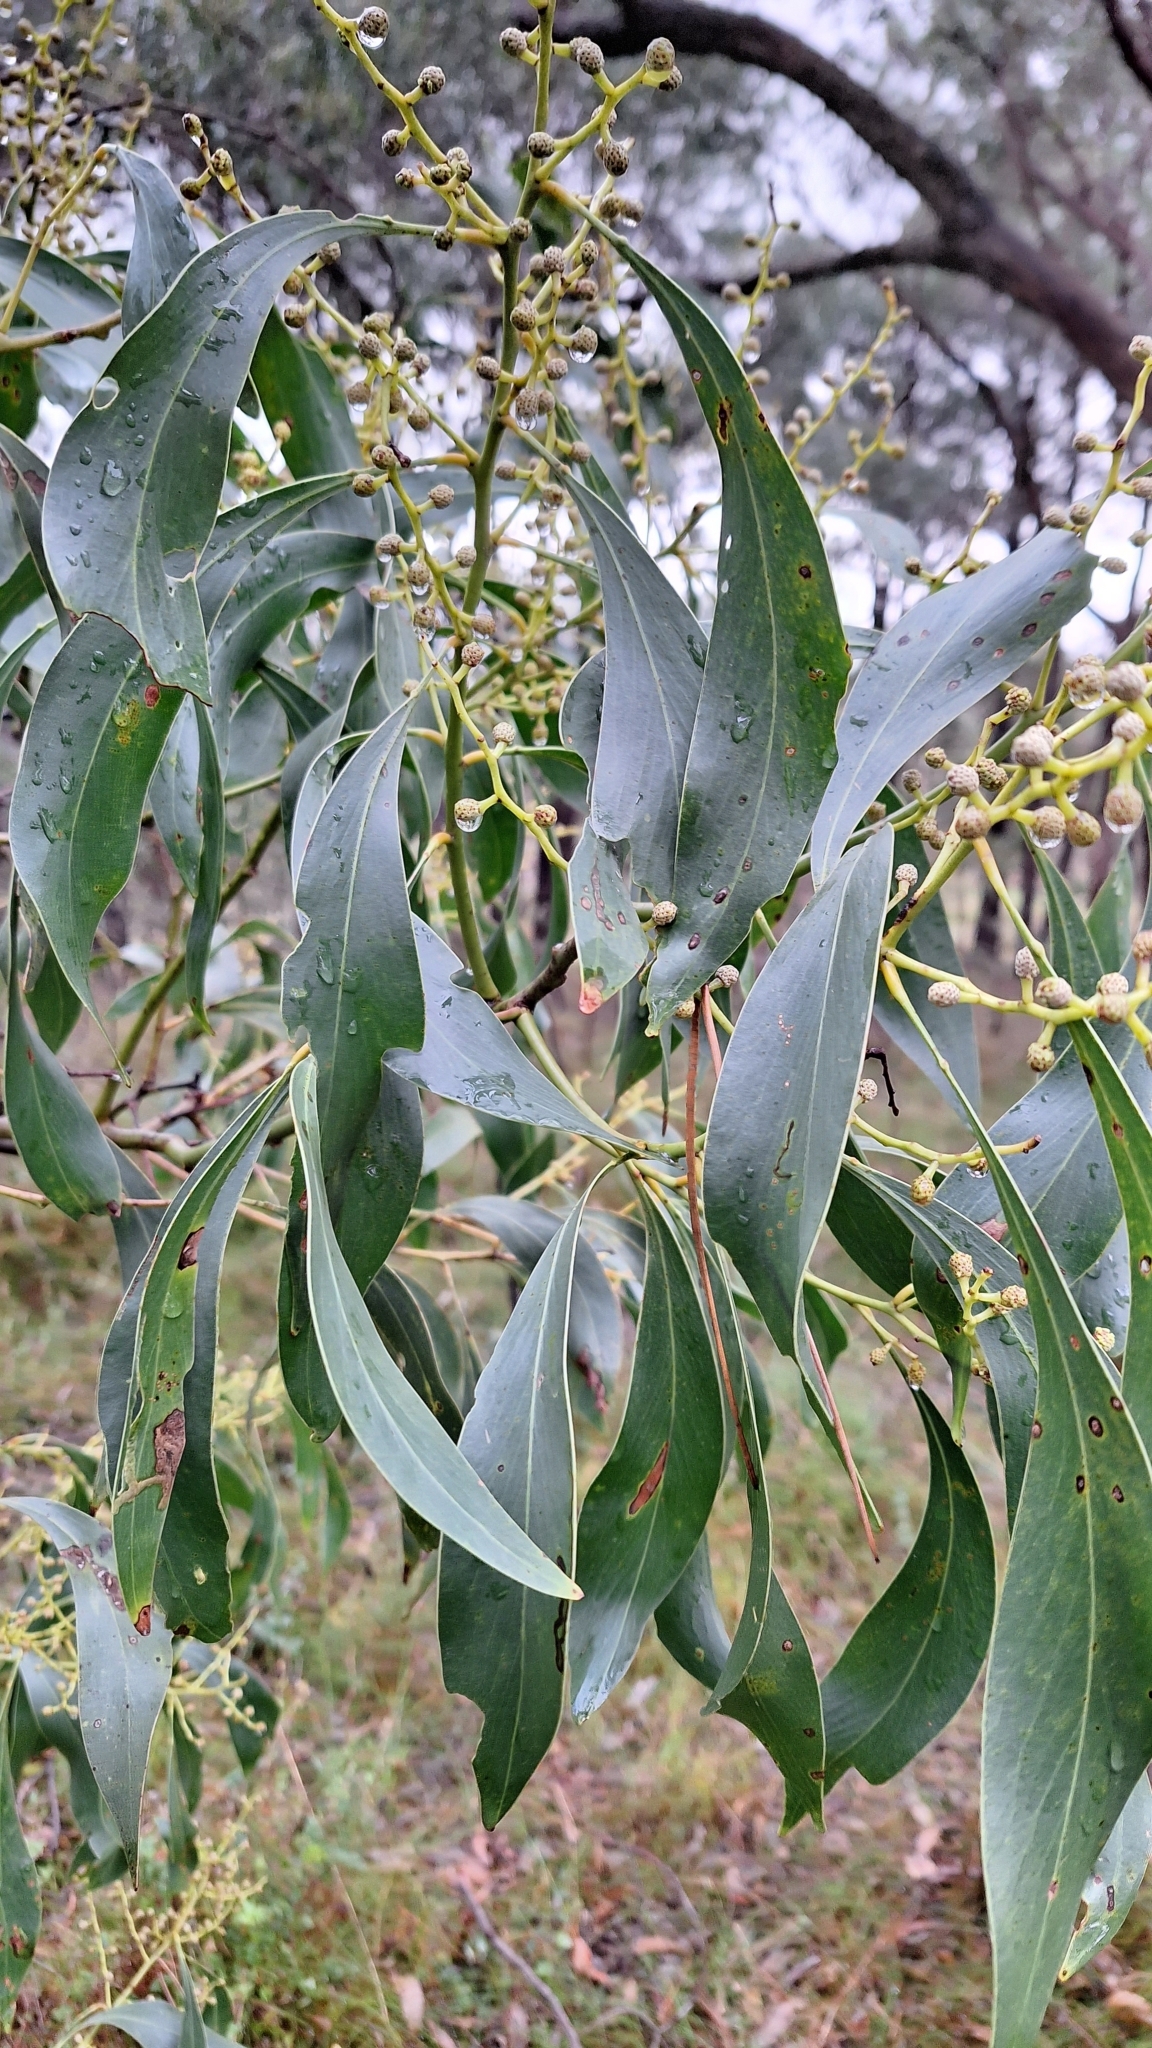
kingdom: Plantae
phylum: Tracheophyta
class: Magnoliopsida
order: Fabales
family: Fabaceae
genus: Acacia
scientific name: Acacia pycnantha
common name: Golden wattle
